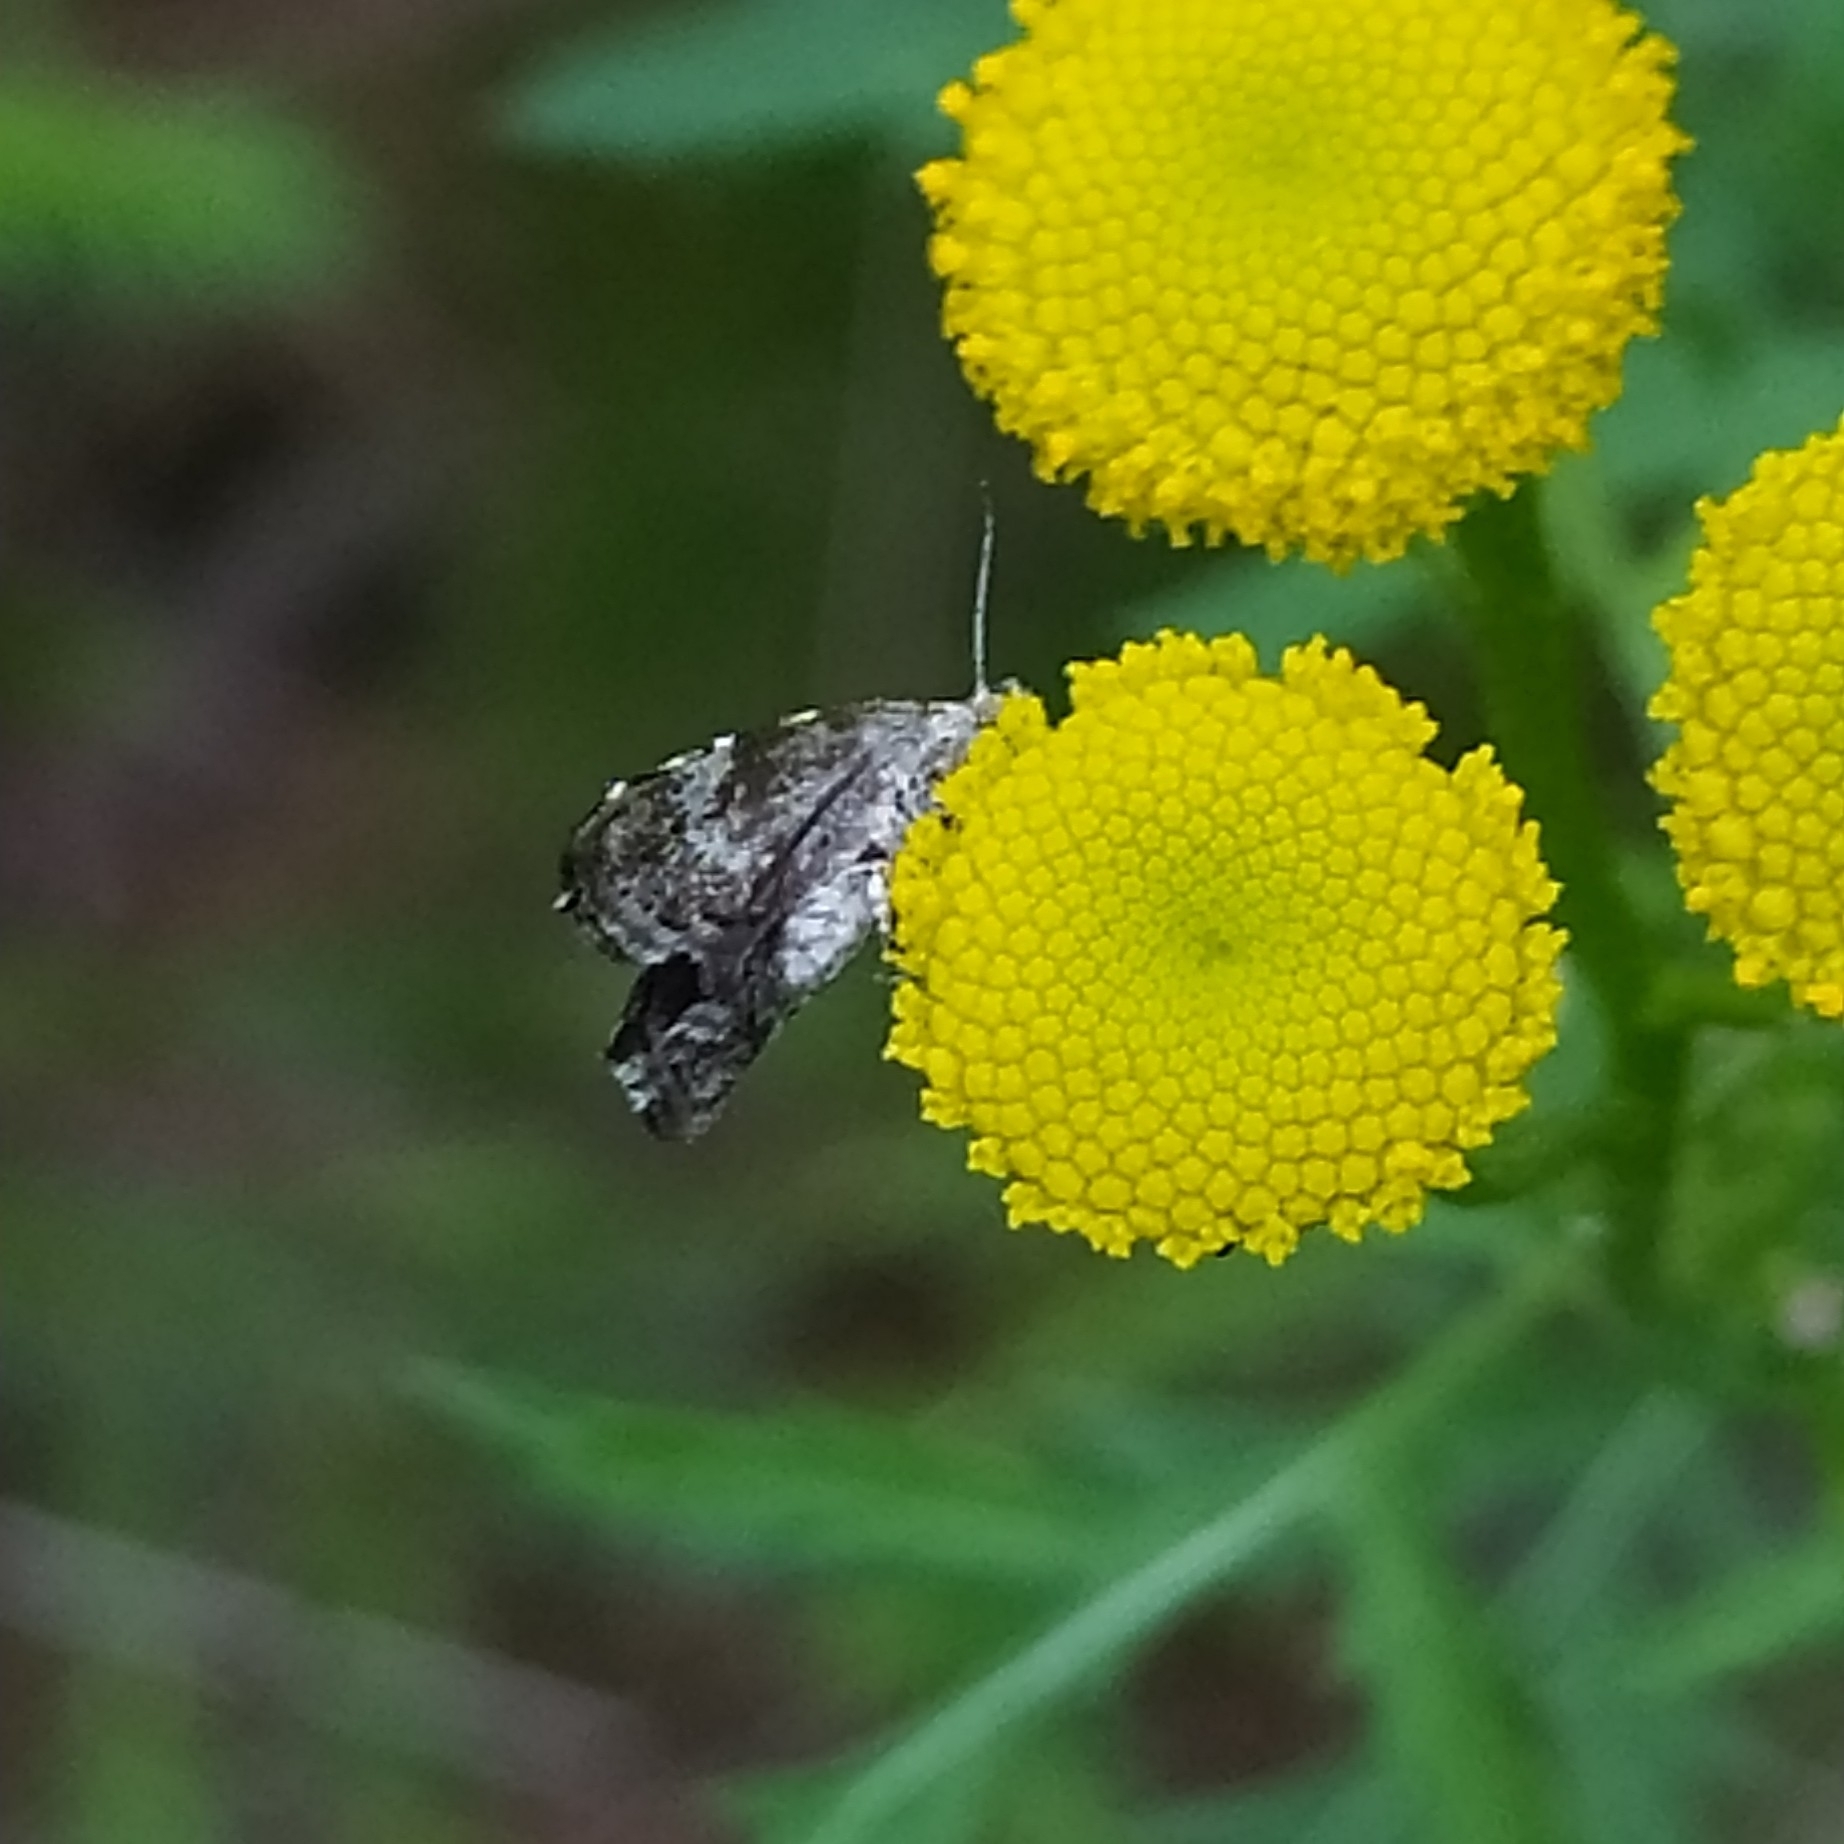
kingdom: Animalia
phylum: Arthropoda
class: Insecta
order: Lepidoptera
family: Choreutidae
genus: Choreutis
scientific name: Choreutis diana
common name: Inverness twitcher
